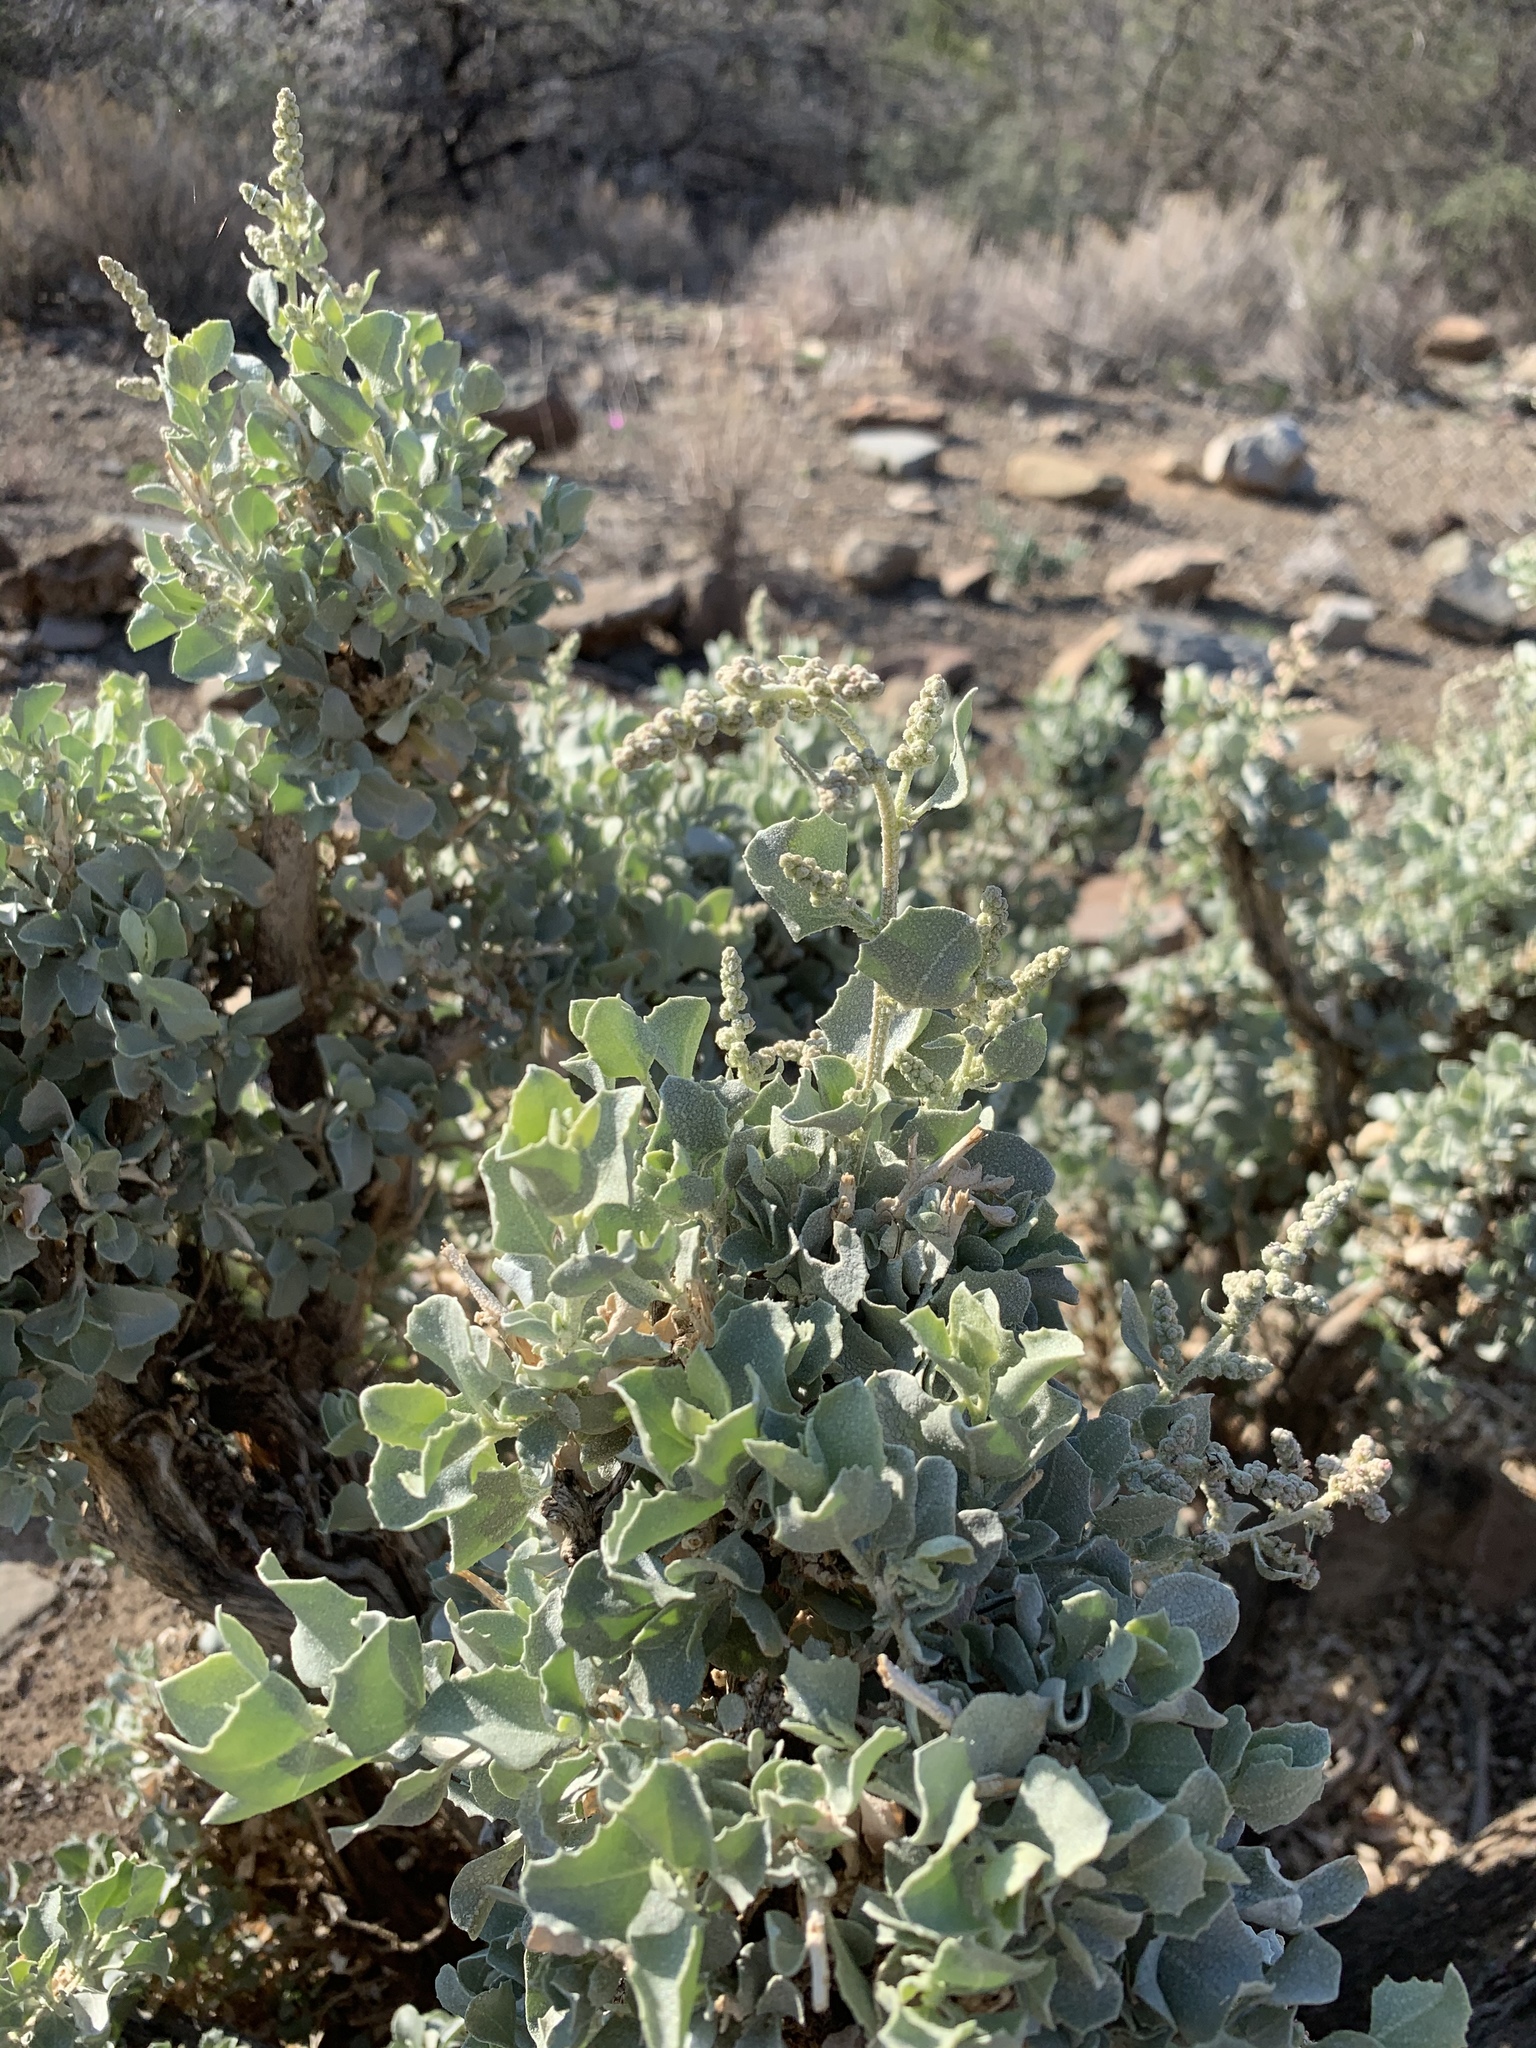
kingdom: Plantae
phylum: Tracheophyta
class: Magnoliopsida
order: Caryophyllales
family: Amaranthaceae
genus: Atriplex
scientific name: Atriplex nummularia
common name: Bluegreen saltbush
